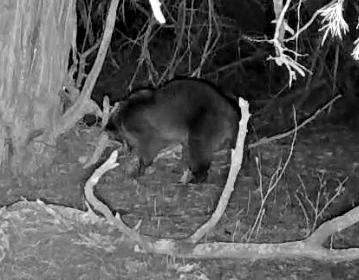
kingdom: Animalia
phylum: Chordata
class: Mammalia
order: Carnivora
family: Procyonidae
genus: Procyon
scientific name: Procyon lotor
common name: Raccoon
